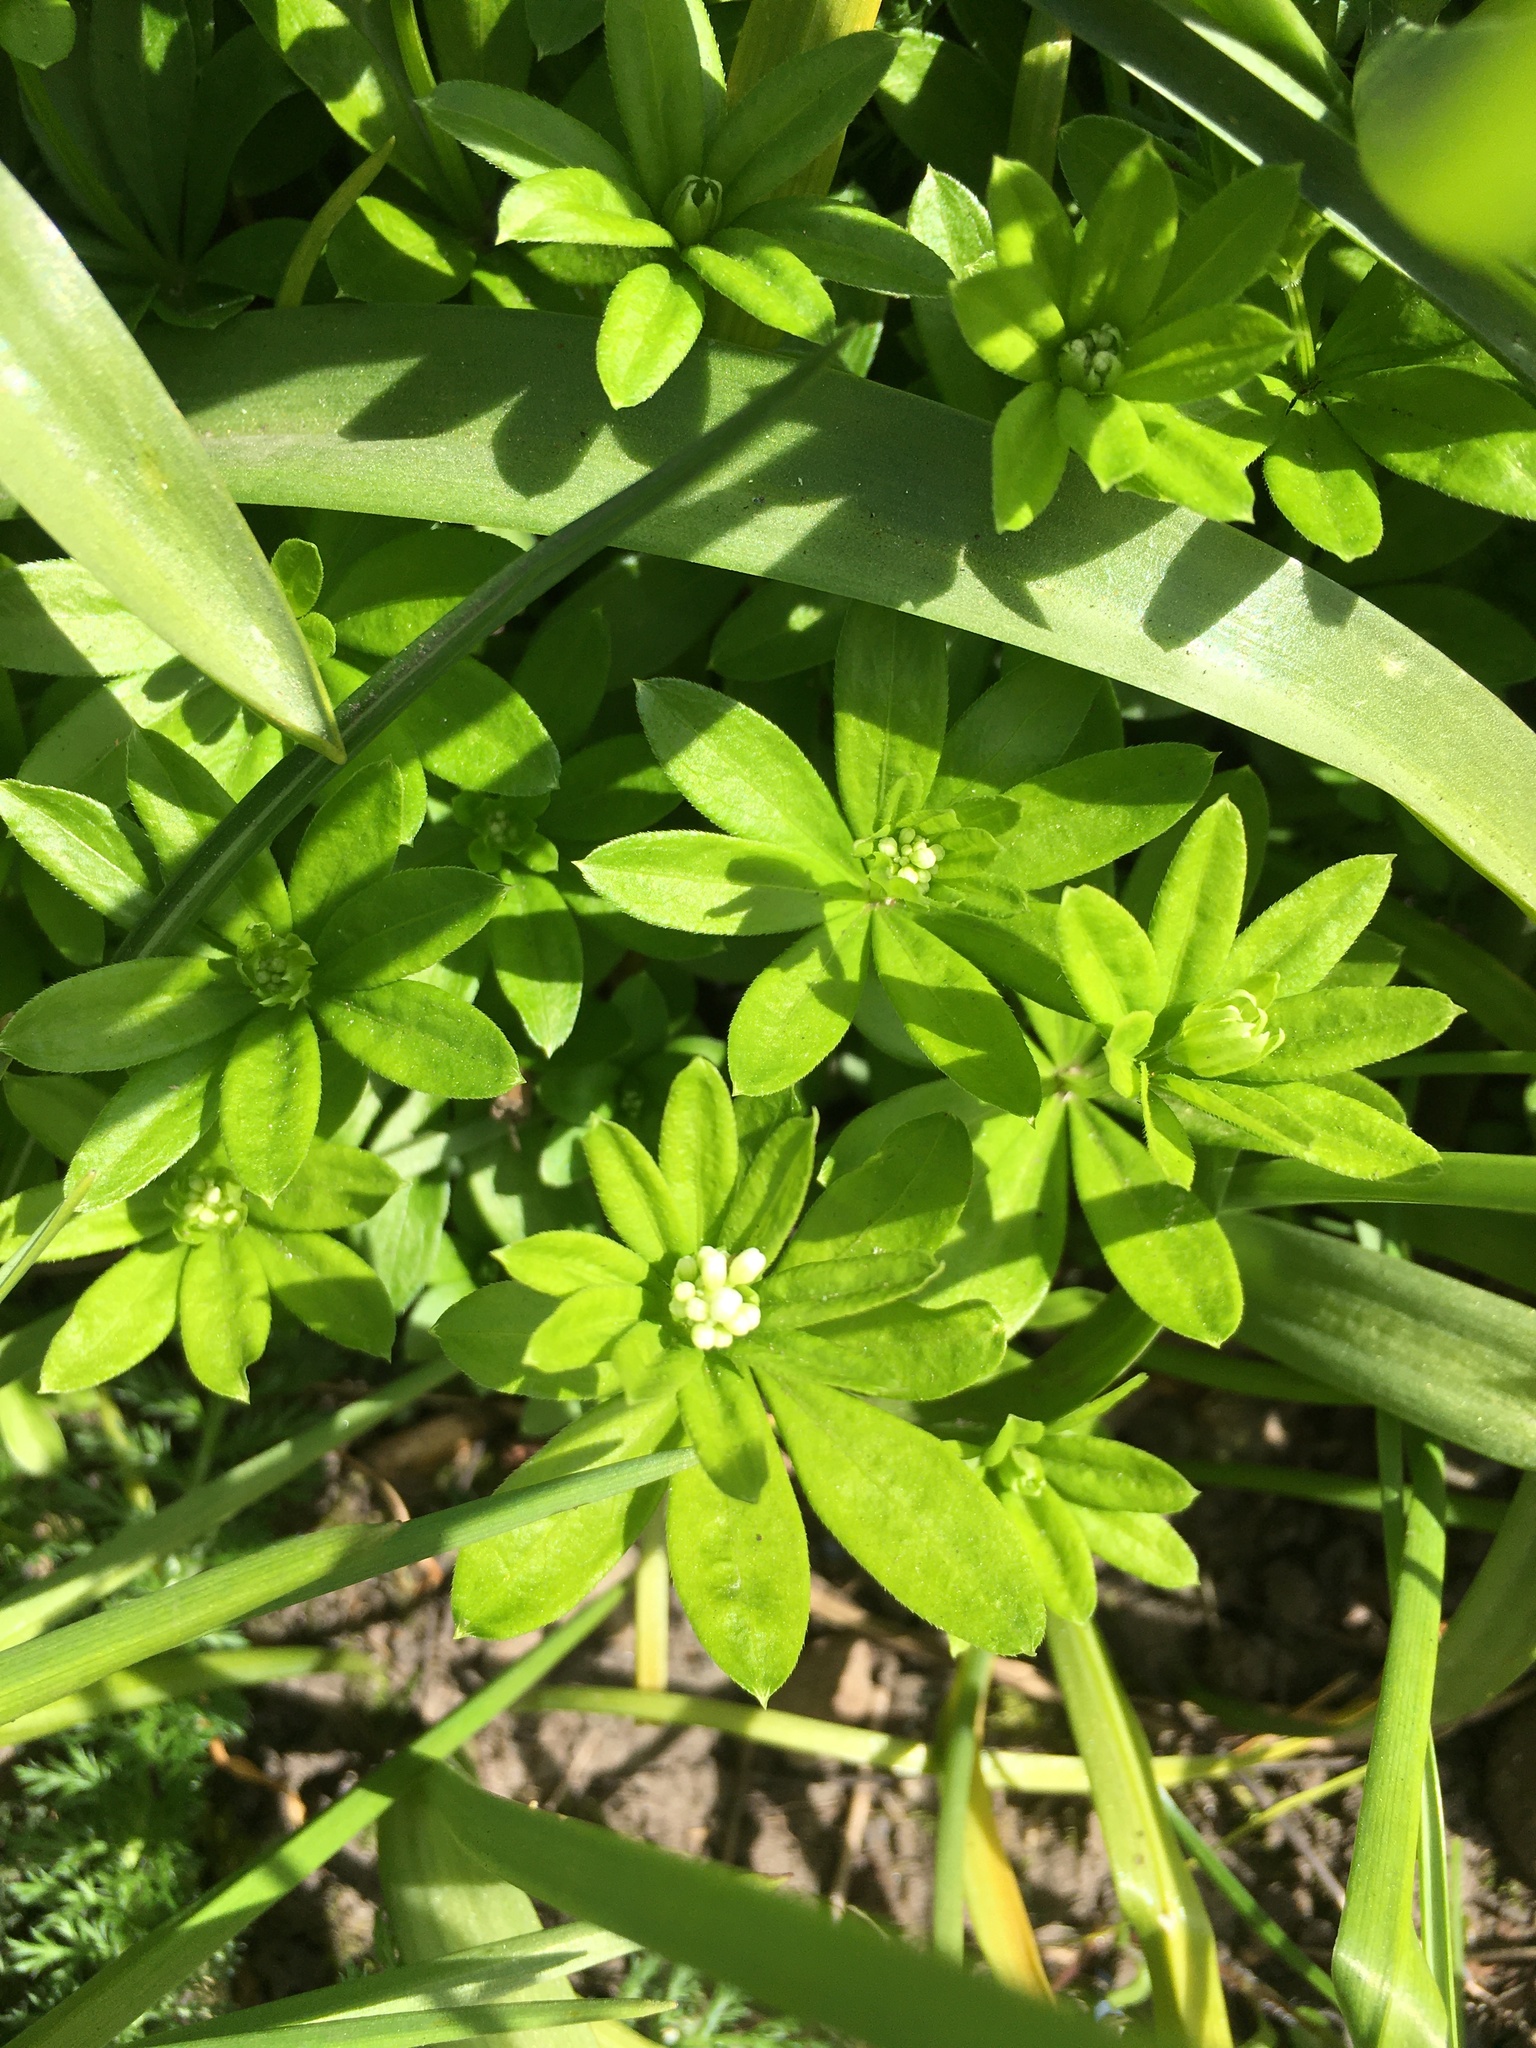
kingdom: Plantae
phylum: Tracheophyta
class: Magnoliopsida
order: Gentianales
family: Rubiaceae
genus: Galium
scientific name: Galium odoratum
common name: Sweet woodruff
